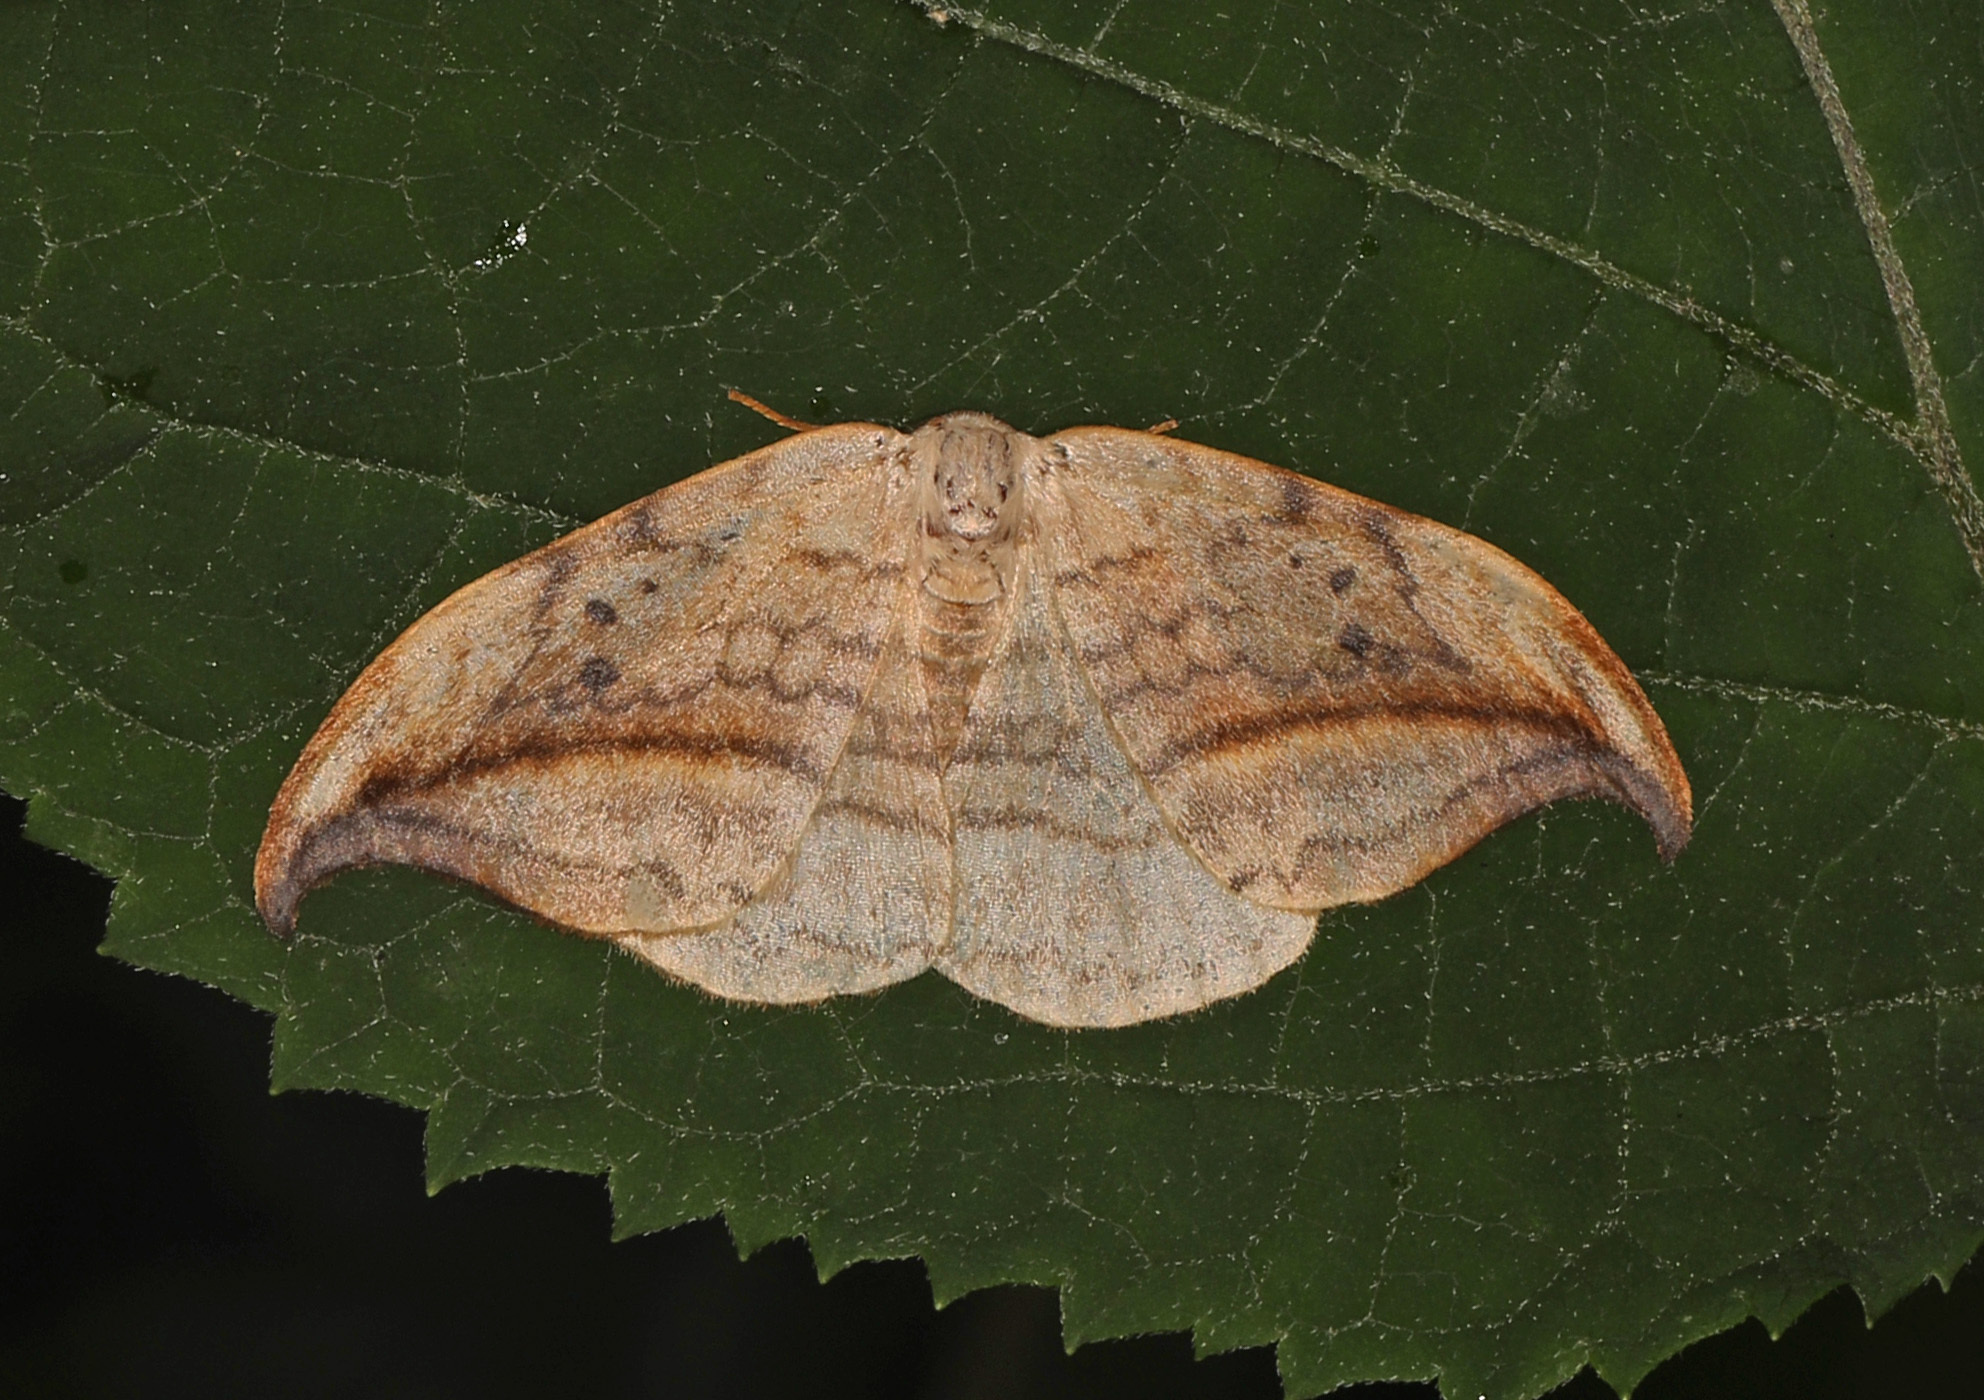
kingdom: Animalia
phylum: Arthropoda
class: Insecta
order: Lepidoptera
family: Drepanidae
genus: Drepana
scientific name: Drepana arcuata
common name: Arched hooktip moth
